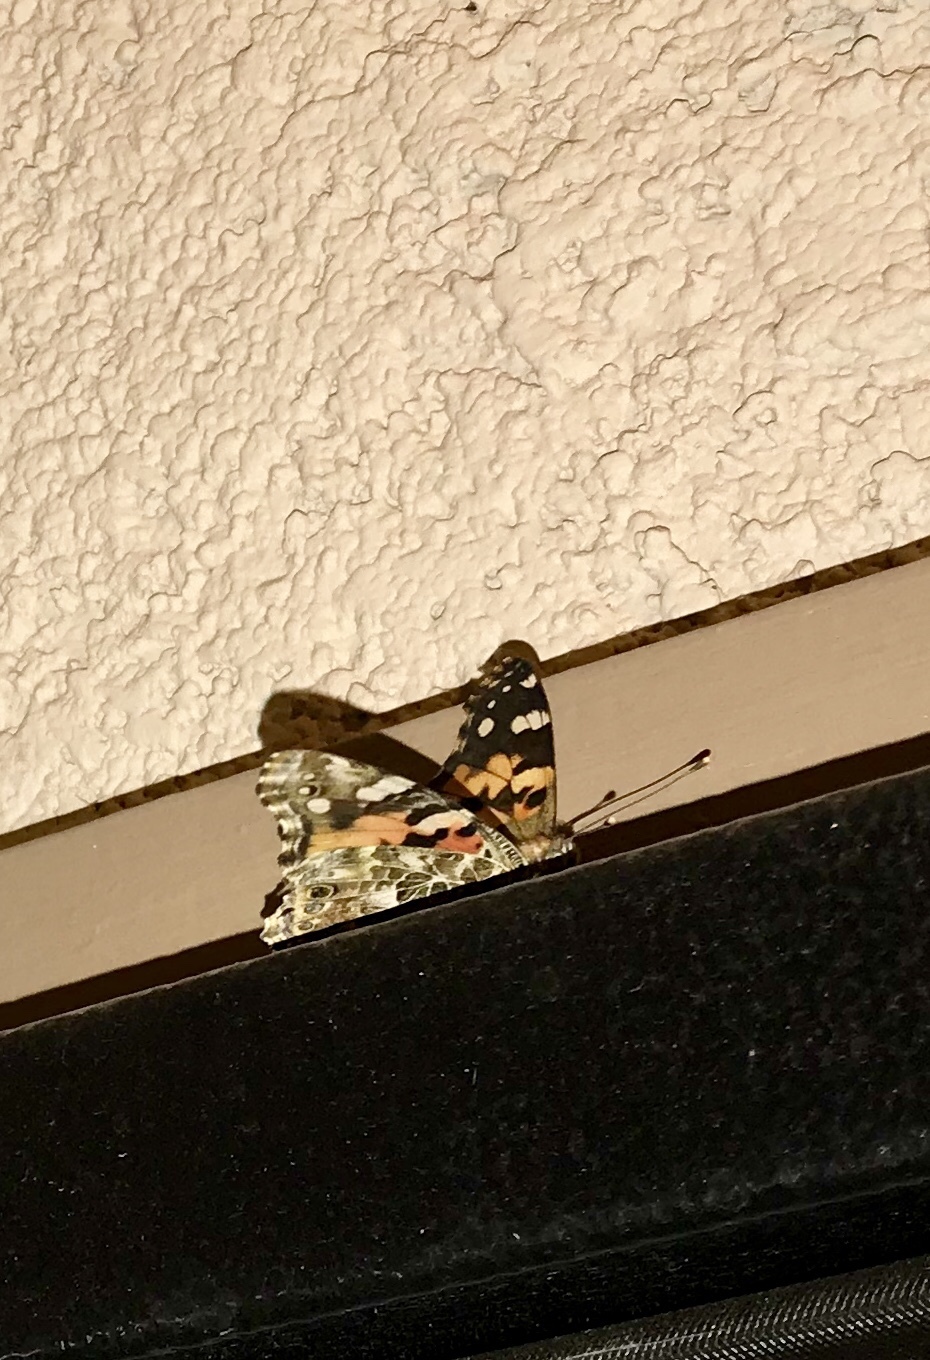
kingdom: Animalia
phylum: Arthropoda
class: Insecta
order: Lepidoptera
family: Nymphalidae
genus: Vanessa
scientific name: Vanessa cardui
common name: Painted lady
